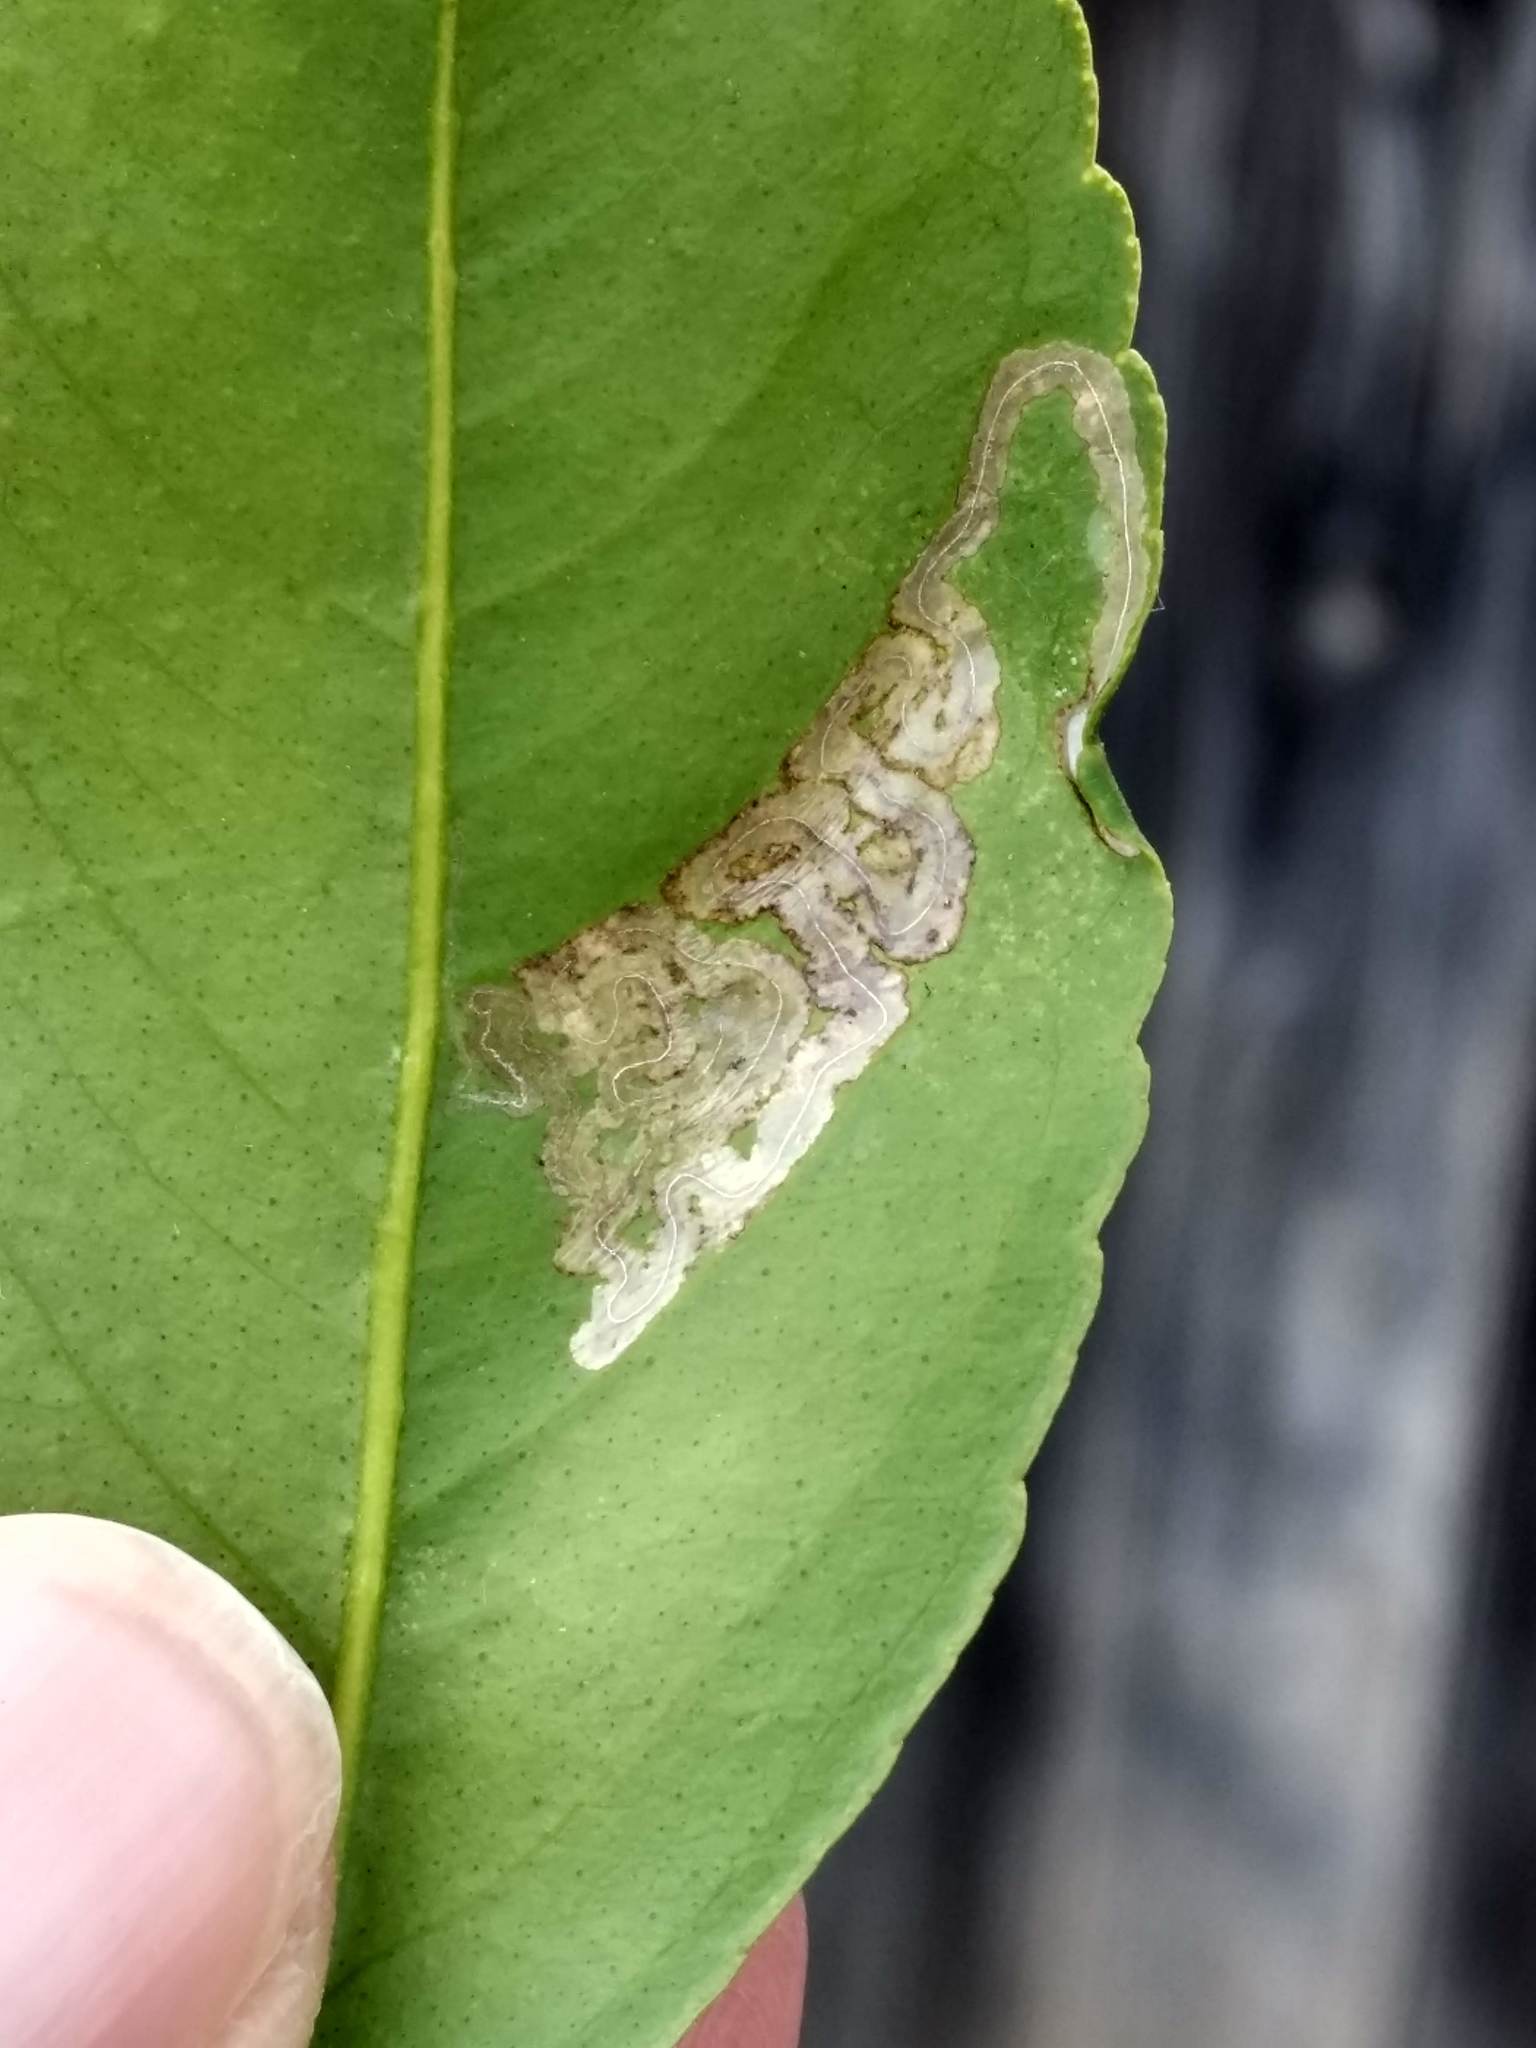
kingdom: Animalia
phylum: Arthropoda
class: Insecta
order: Lepidoptera
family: Gracillariidae
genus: Phyllocnistis
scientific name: Phyllocnistis citrella
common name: Citrus leafminer
